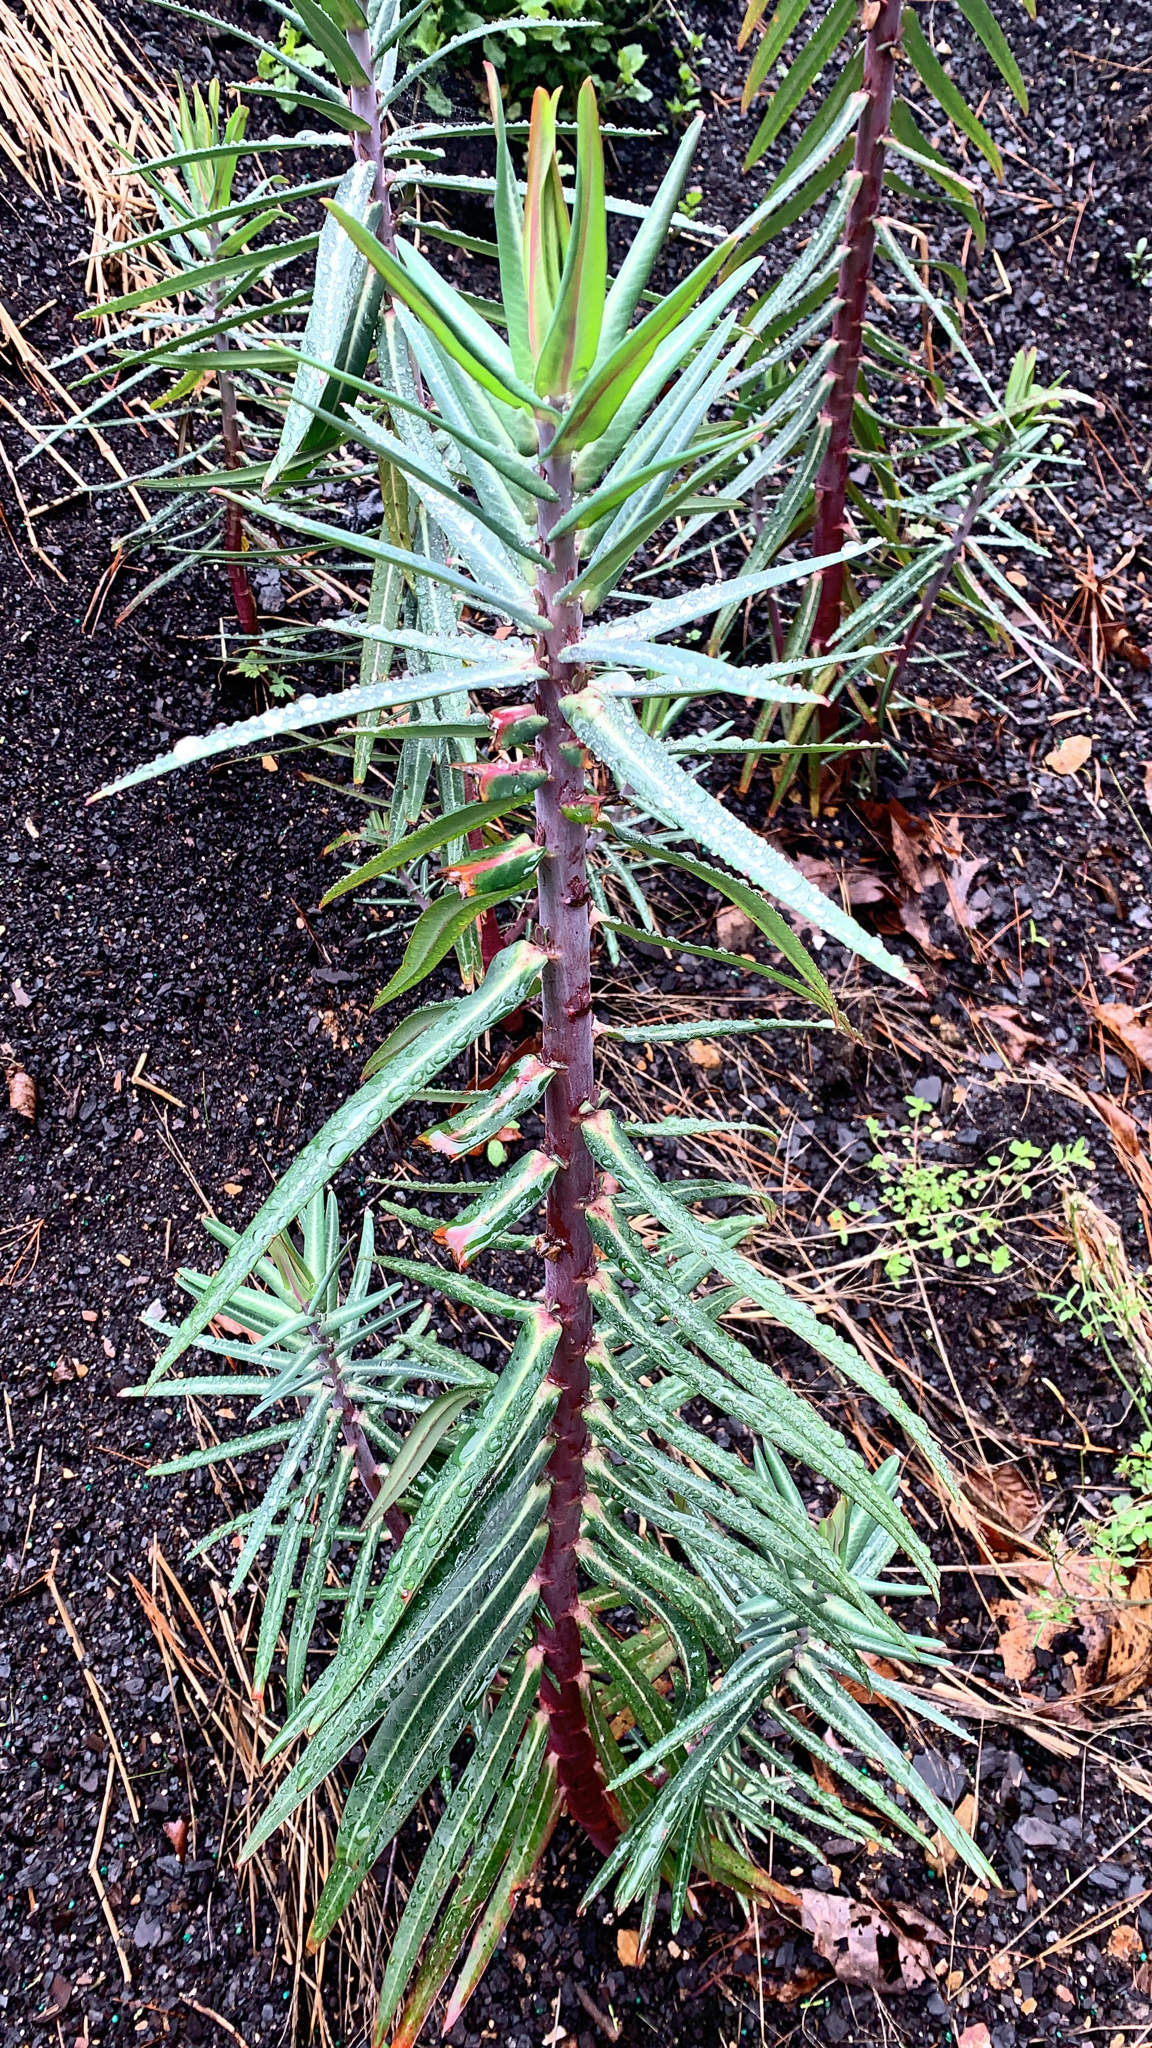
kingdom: Plantae
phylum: Tracheophyta
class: Magnoliopsida
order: Malpighiales
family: Euphorbiaceae
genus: Euphorbia
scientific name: Euphorbia lathyris
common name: Caper spurge
